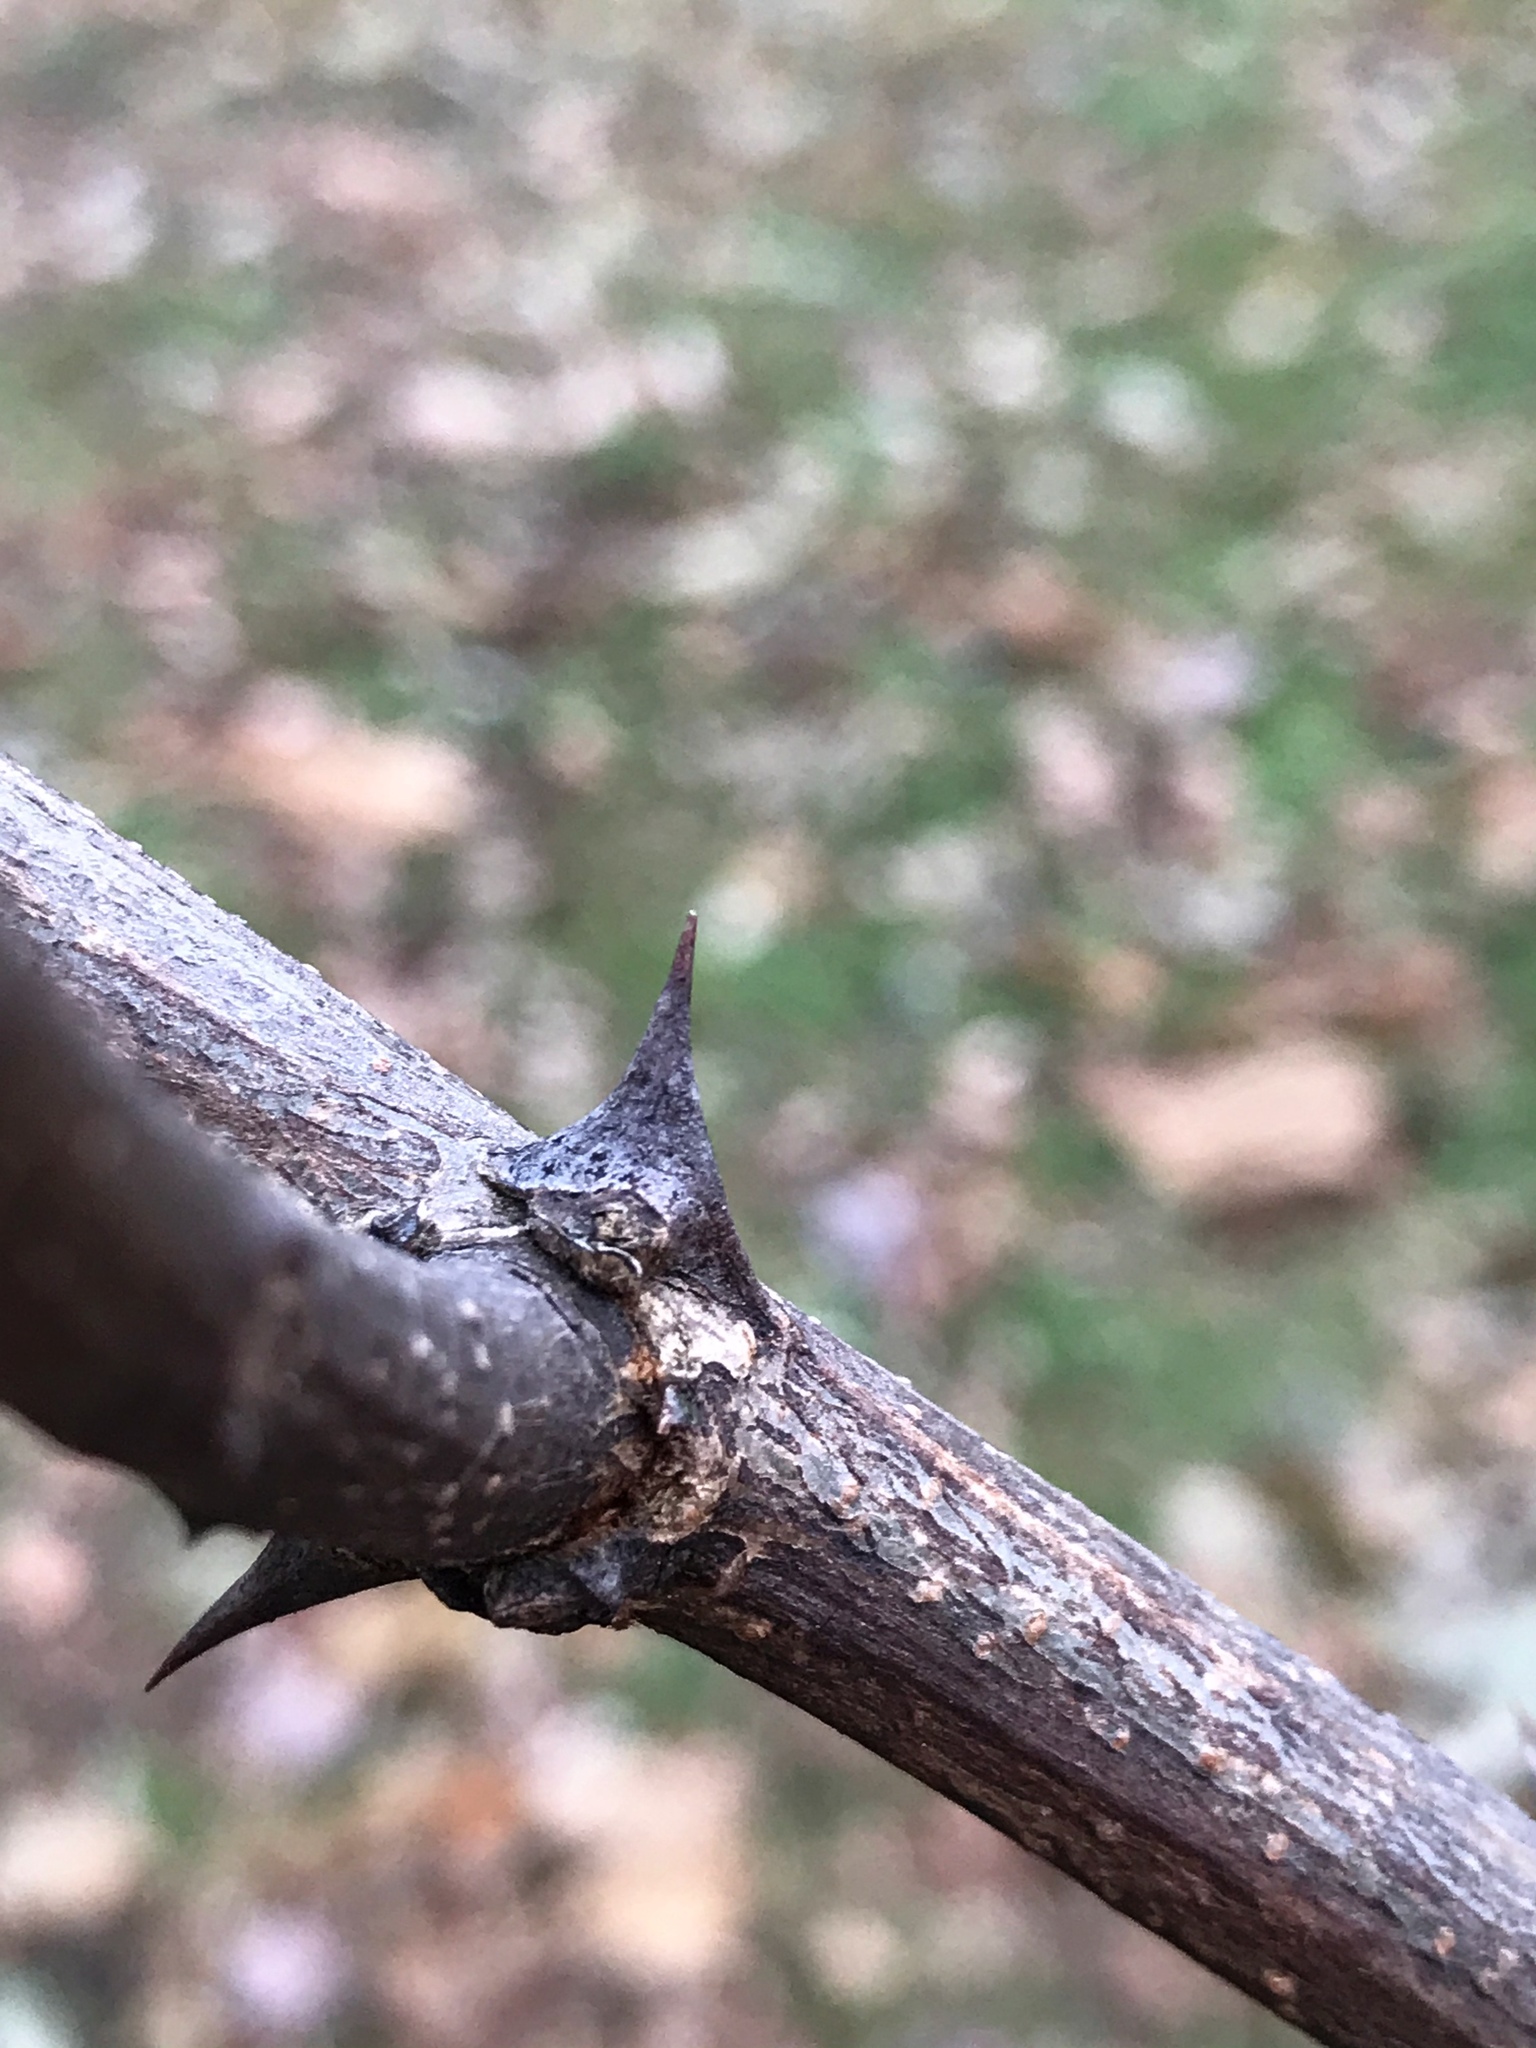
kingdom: Plantae
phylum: Tracheophyta
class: Magnoliopsida
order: Fabales
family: Fabaceae
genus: Robinia
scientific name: Robinia pseudoacacia
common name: Black locust
